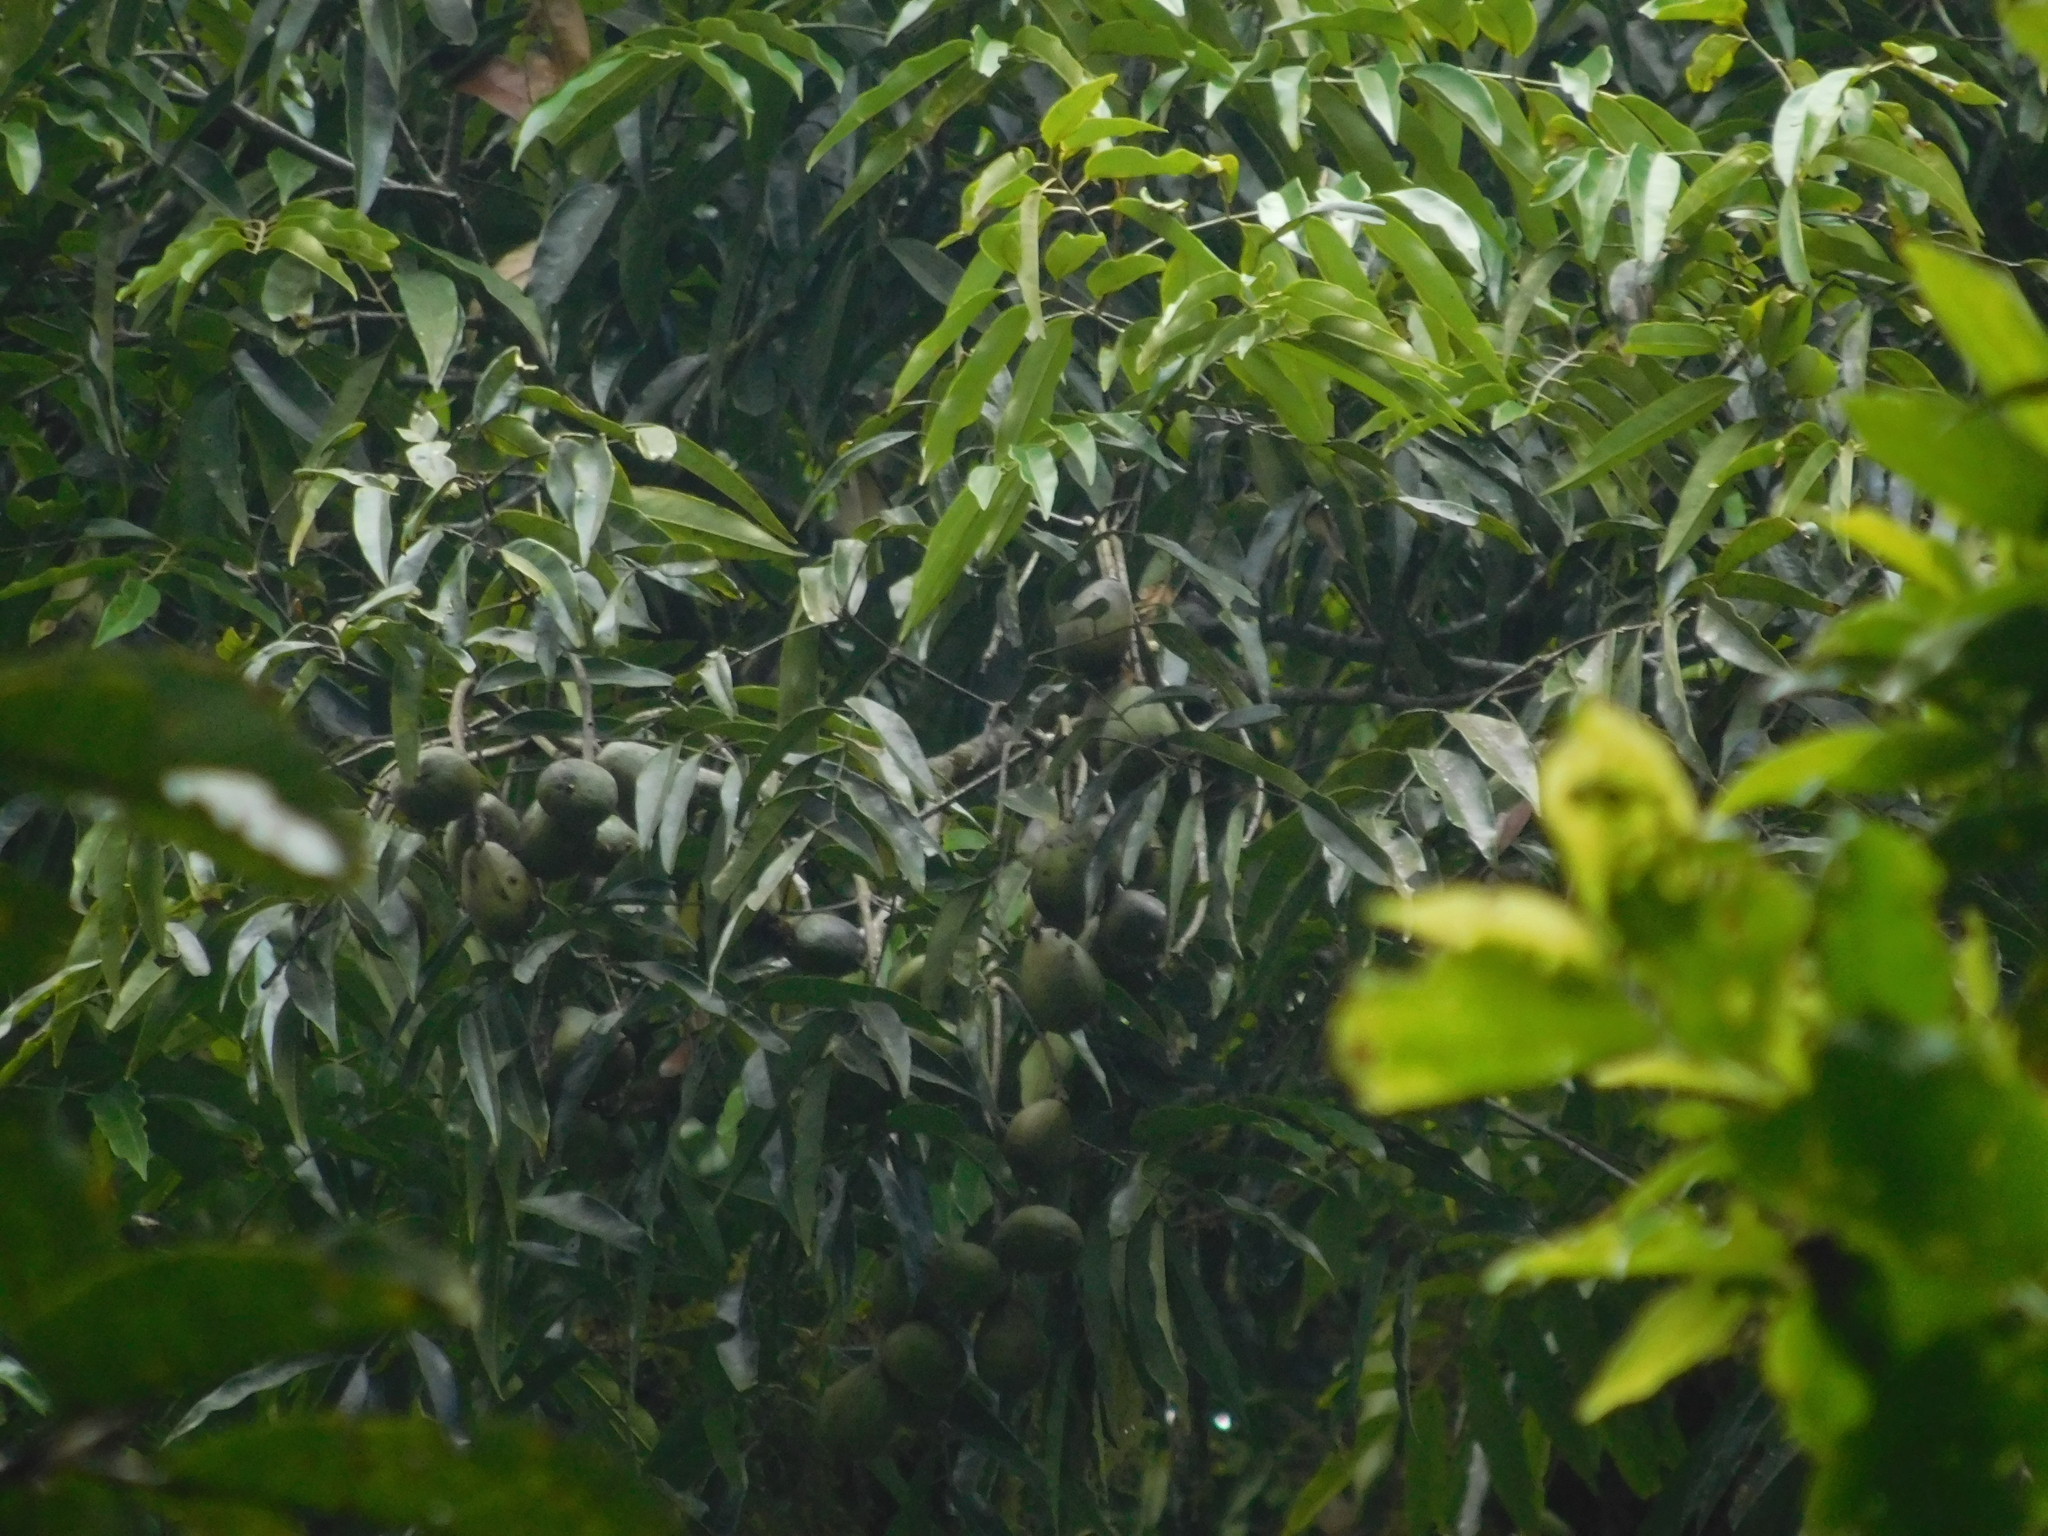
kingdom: Plantae
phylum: Tracheophyta
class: Magnoliopsida
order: Fagales
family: Juglandaceae
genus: Alfaroa
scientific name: Alfaroa mexicana
